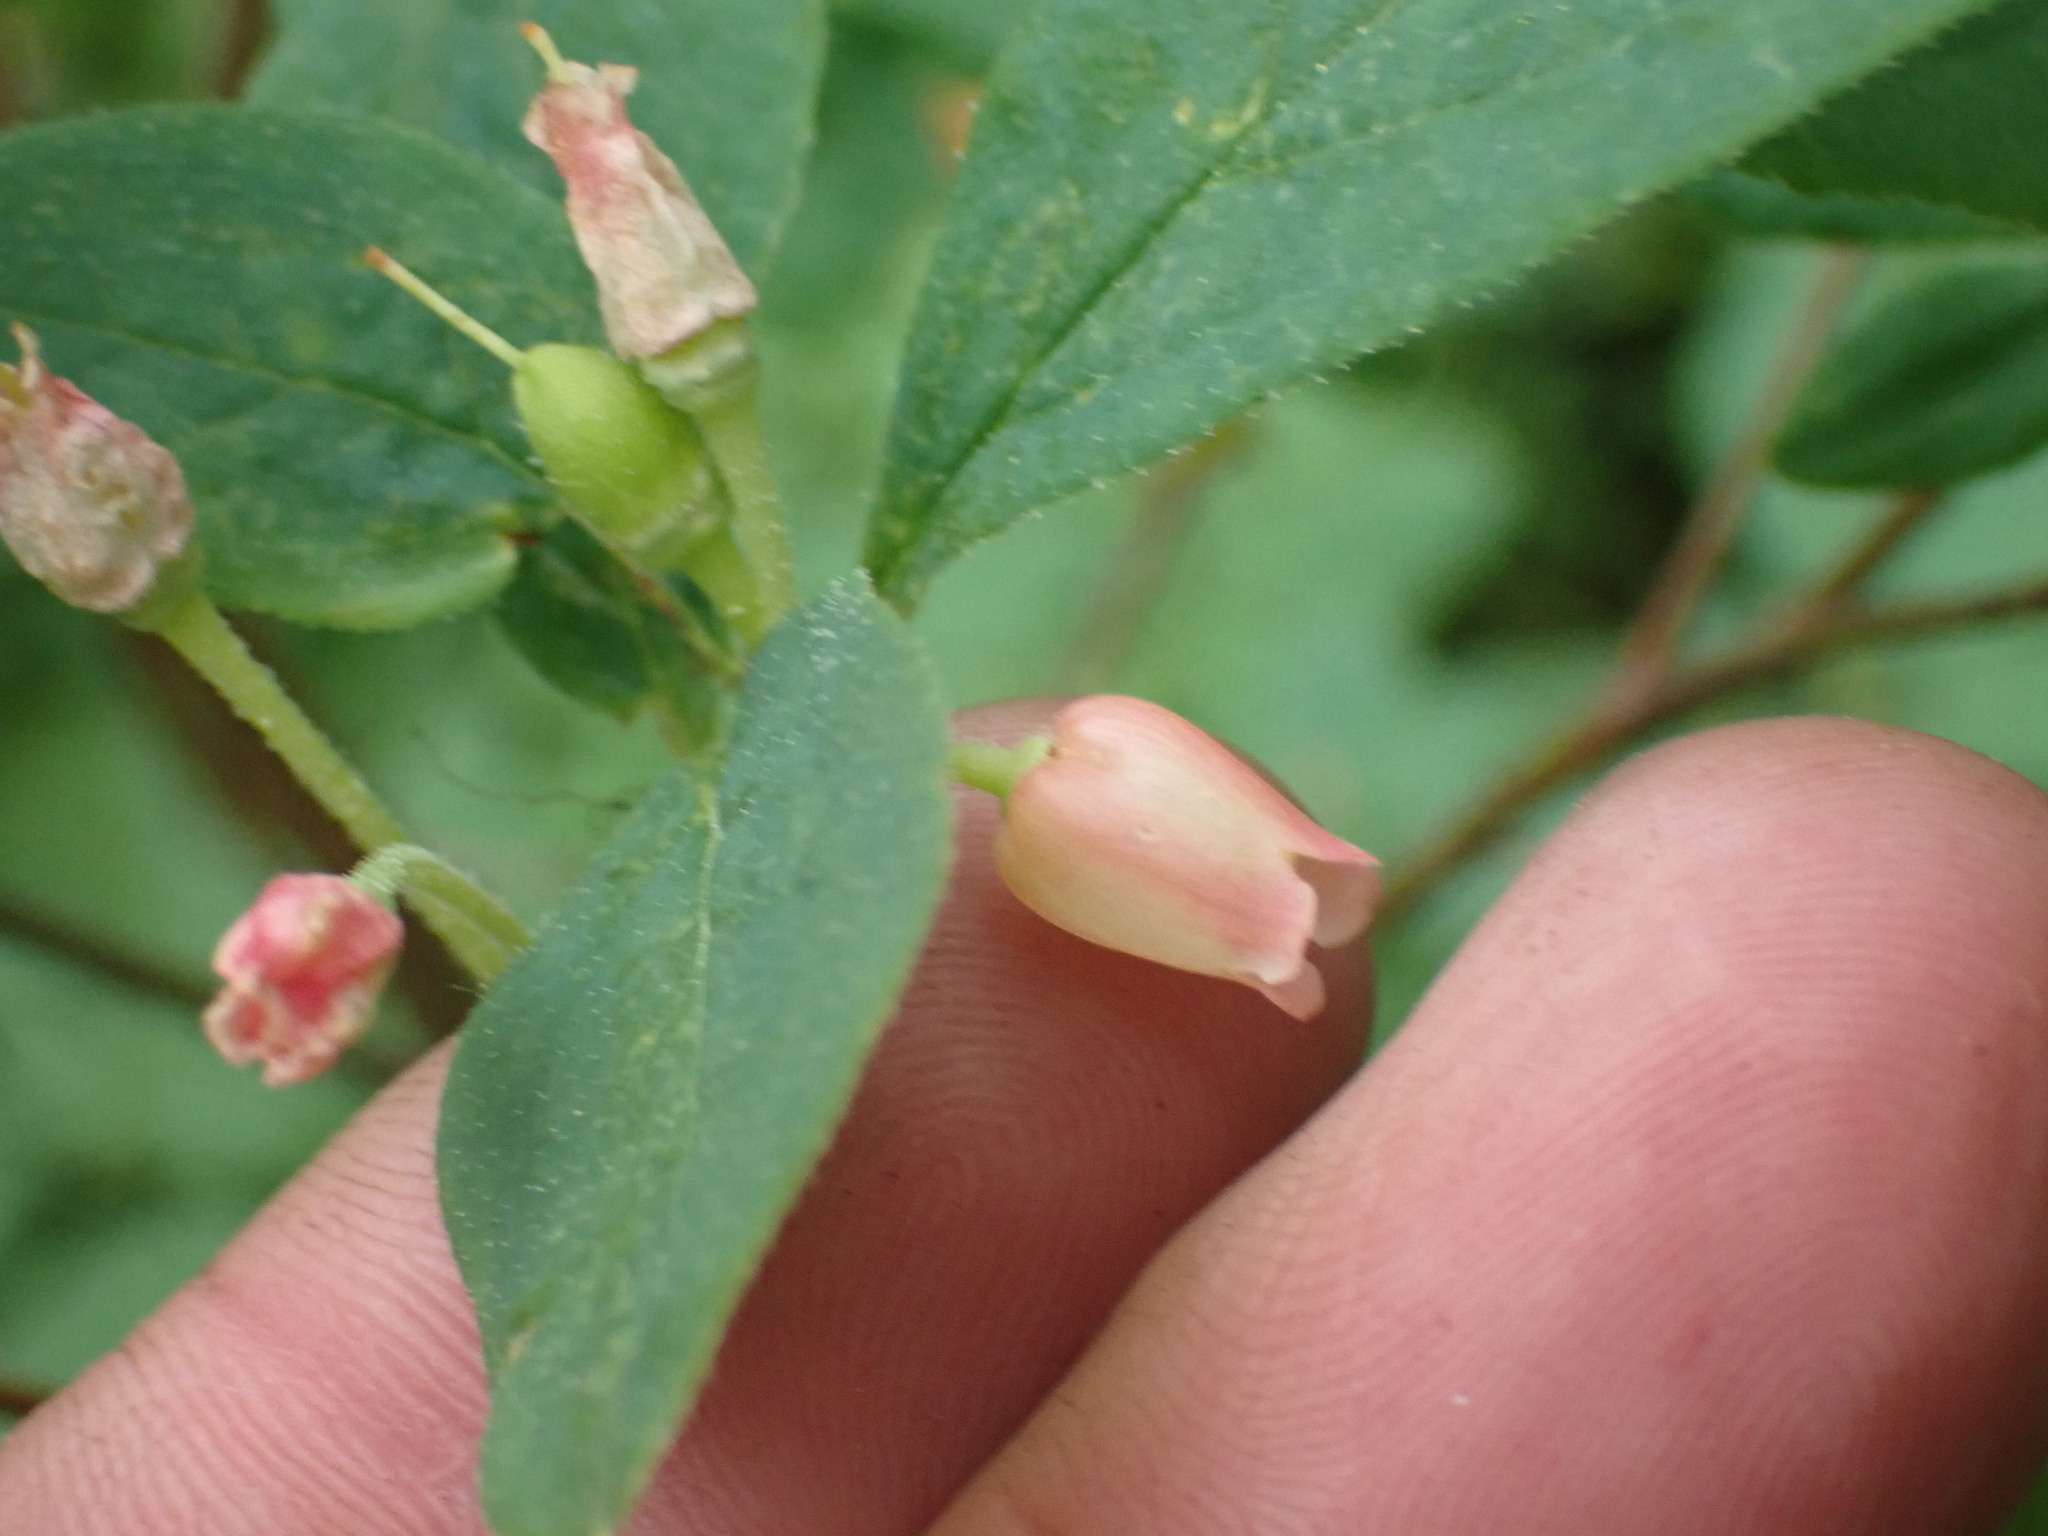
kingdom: Plantae
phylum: Tracheophyta
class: Magnoliopsida
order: Ericales
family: Ericaceae
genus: Rhododendron
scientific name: Rhododendron menziesii
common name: Pacific menziesia
